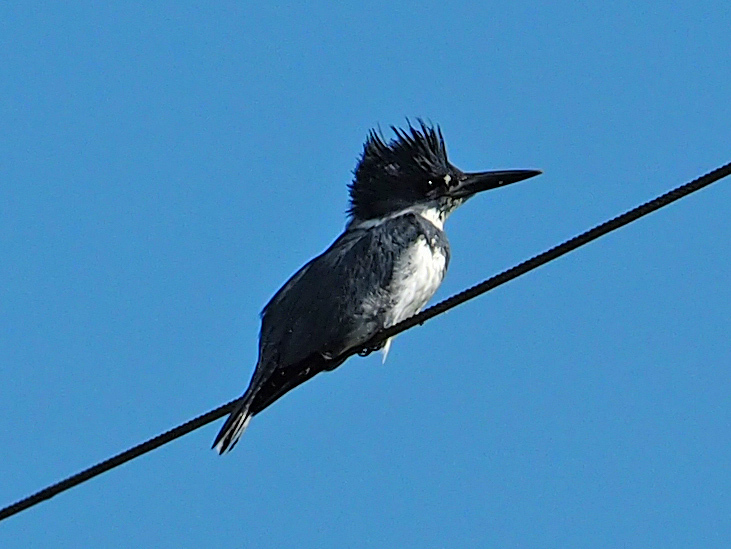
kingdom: Animalia
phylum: Chordata
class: Aves
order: Coraciiformes
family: Alcedinidae
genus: Megaceryle
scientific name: Megaceryle alcyon
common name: Belted kingfisher
